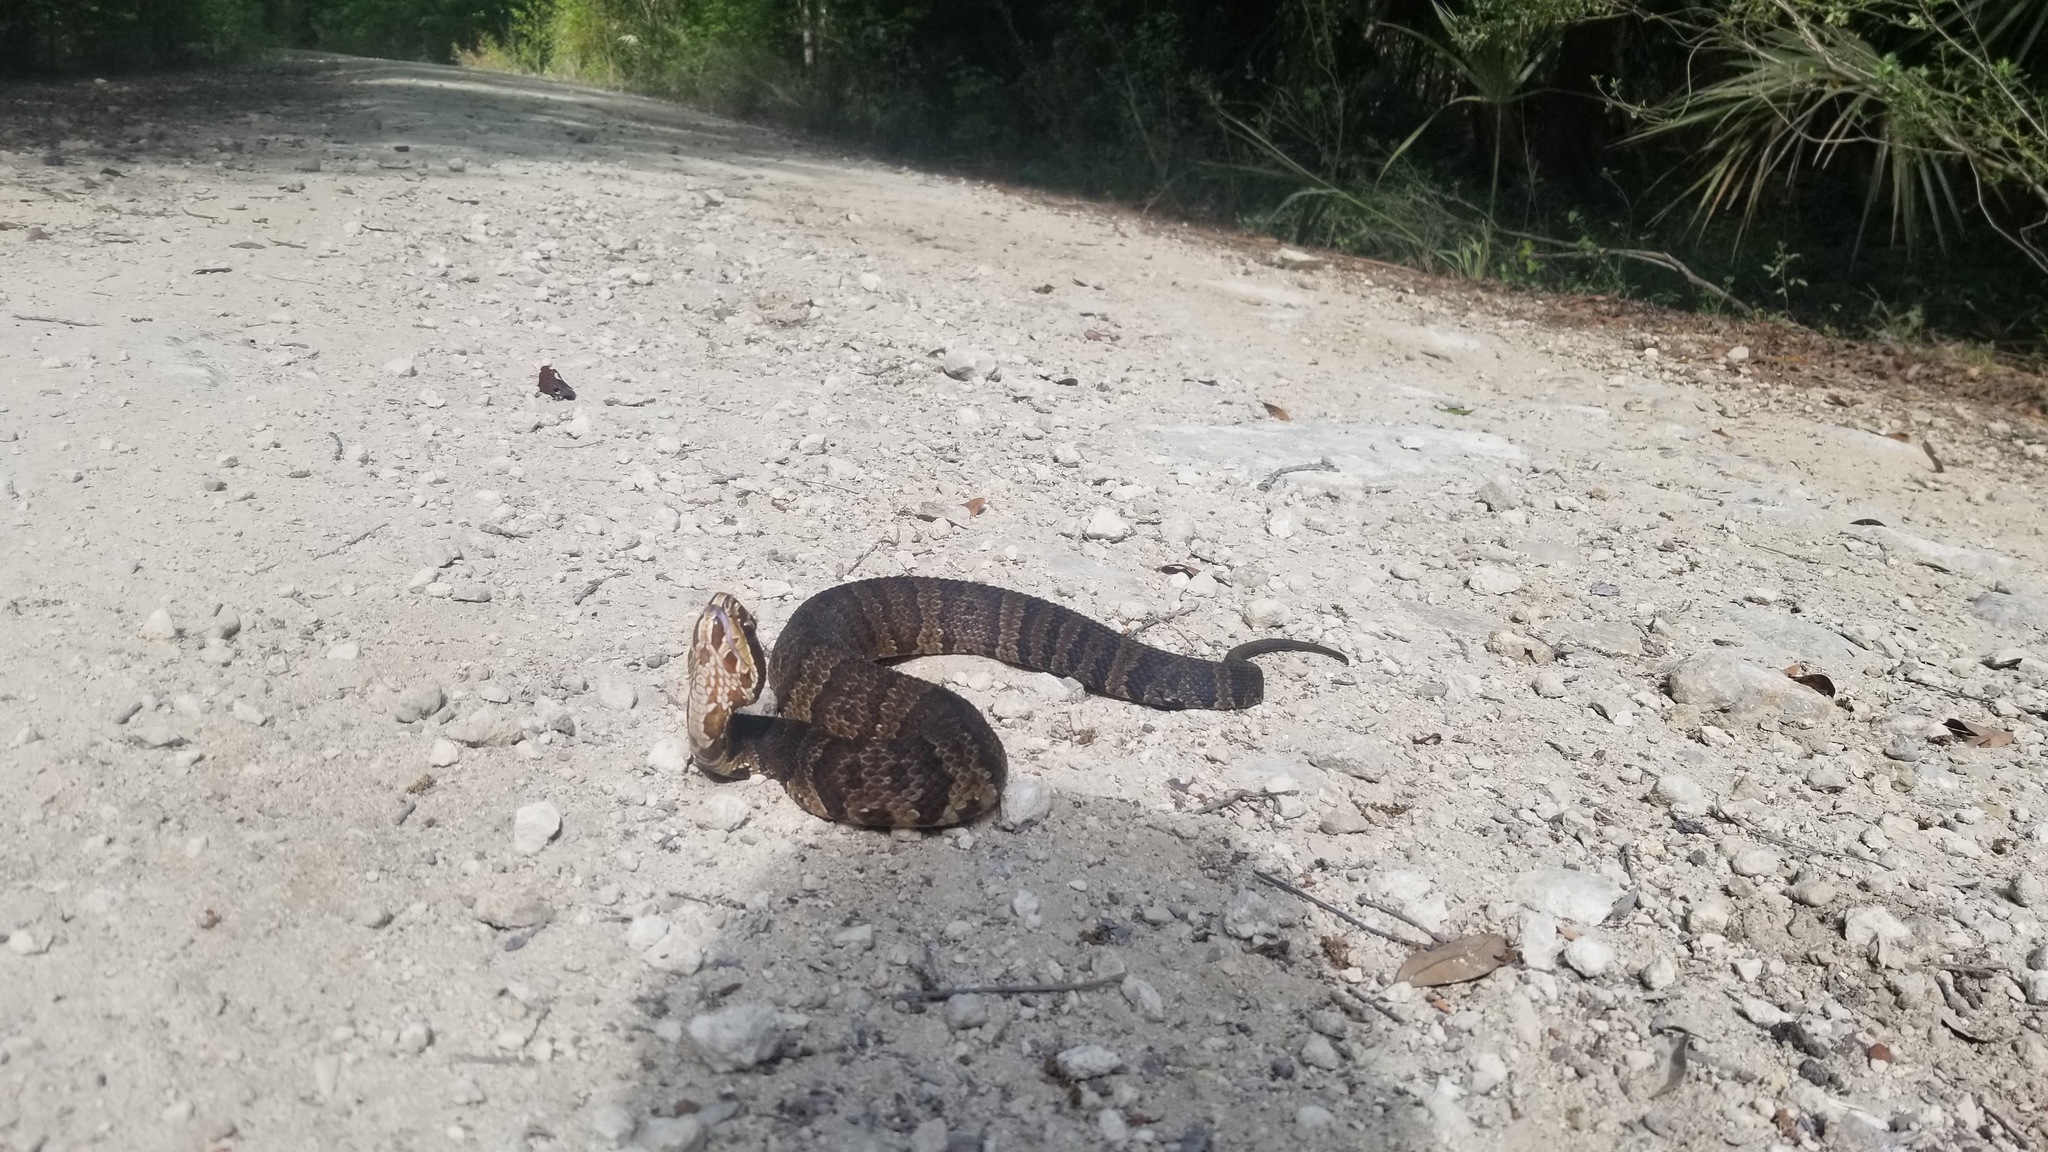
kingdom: Animalia
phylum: Chordata
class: Squamata
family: Viperidae
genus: Agkistrodon
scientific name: Agkistrodon conanti
